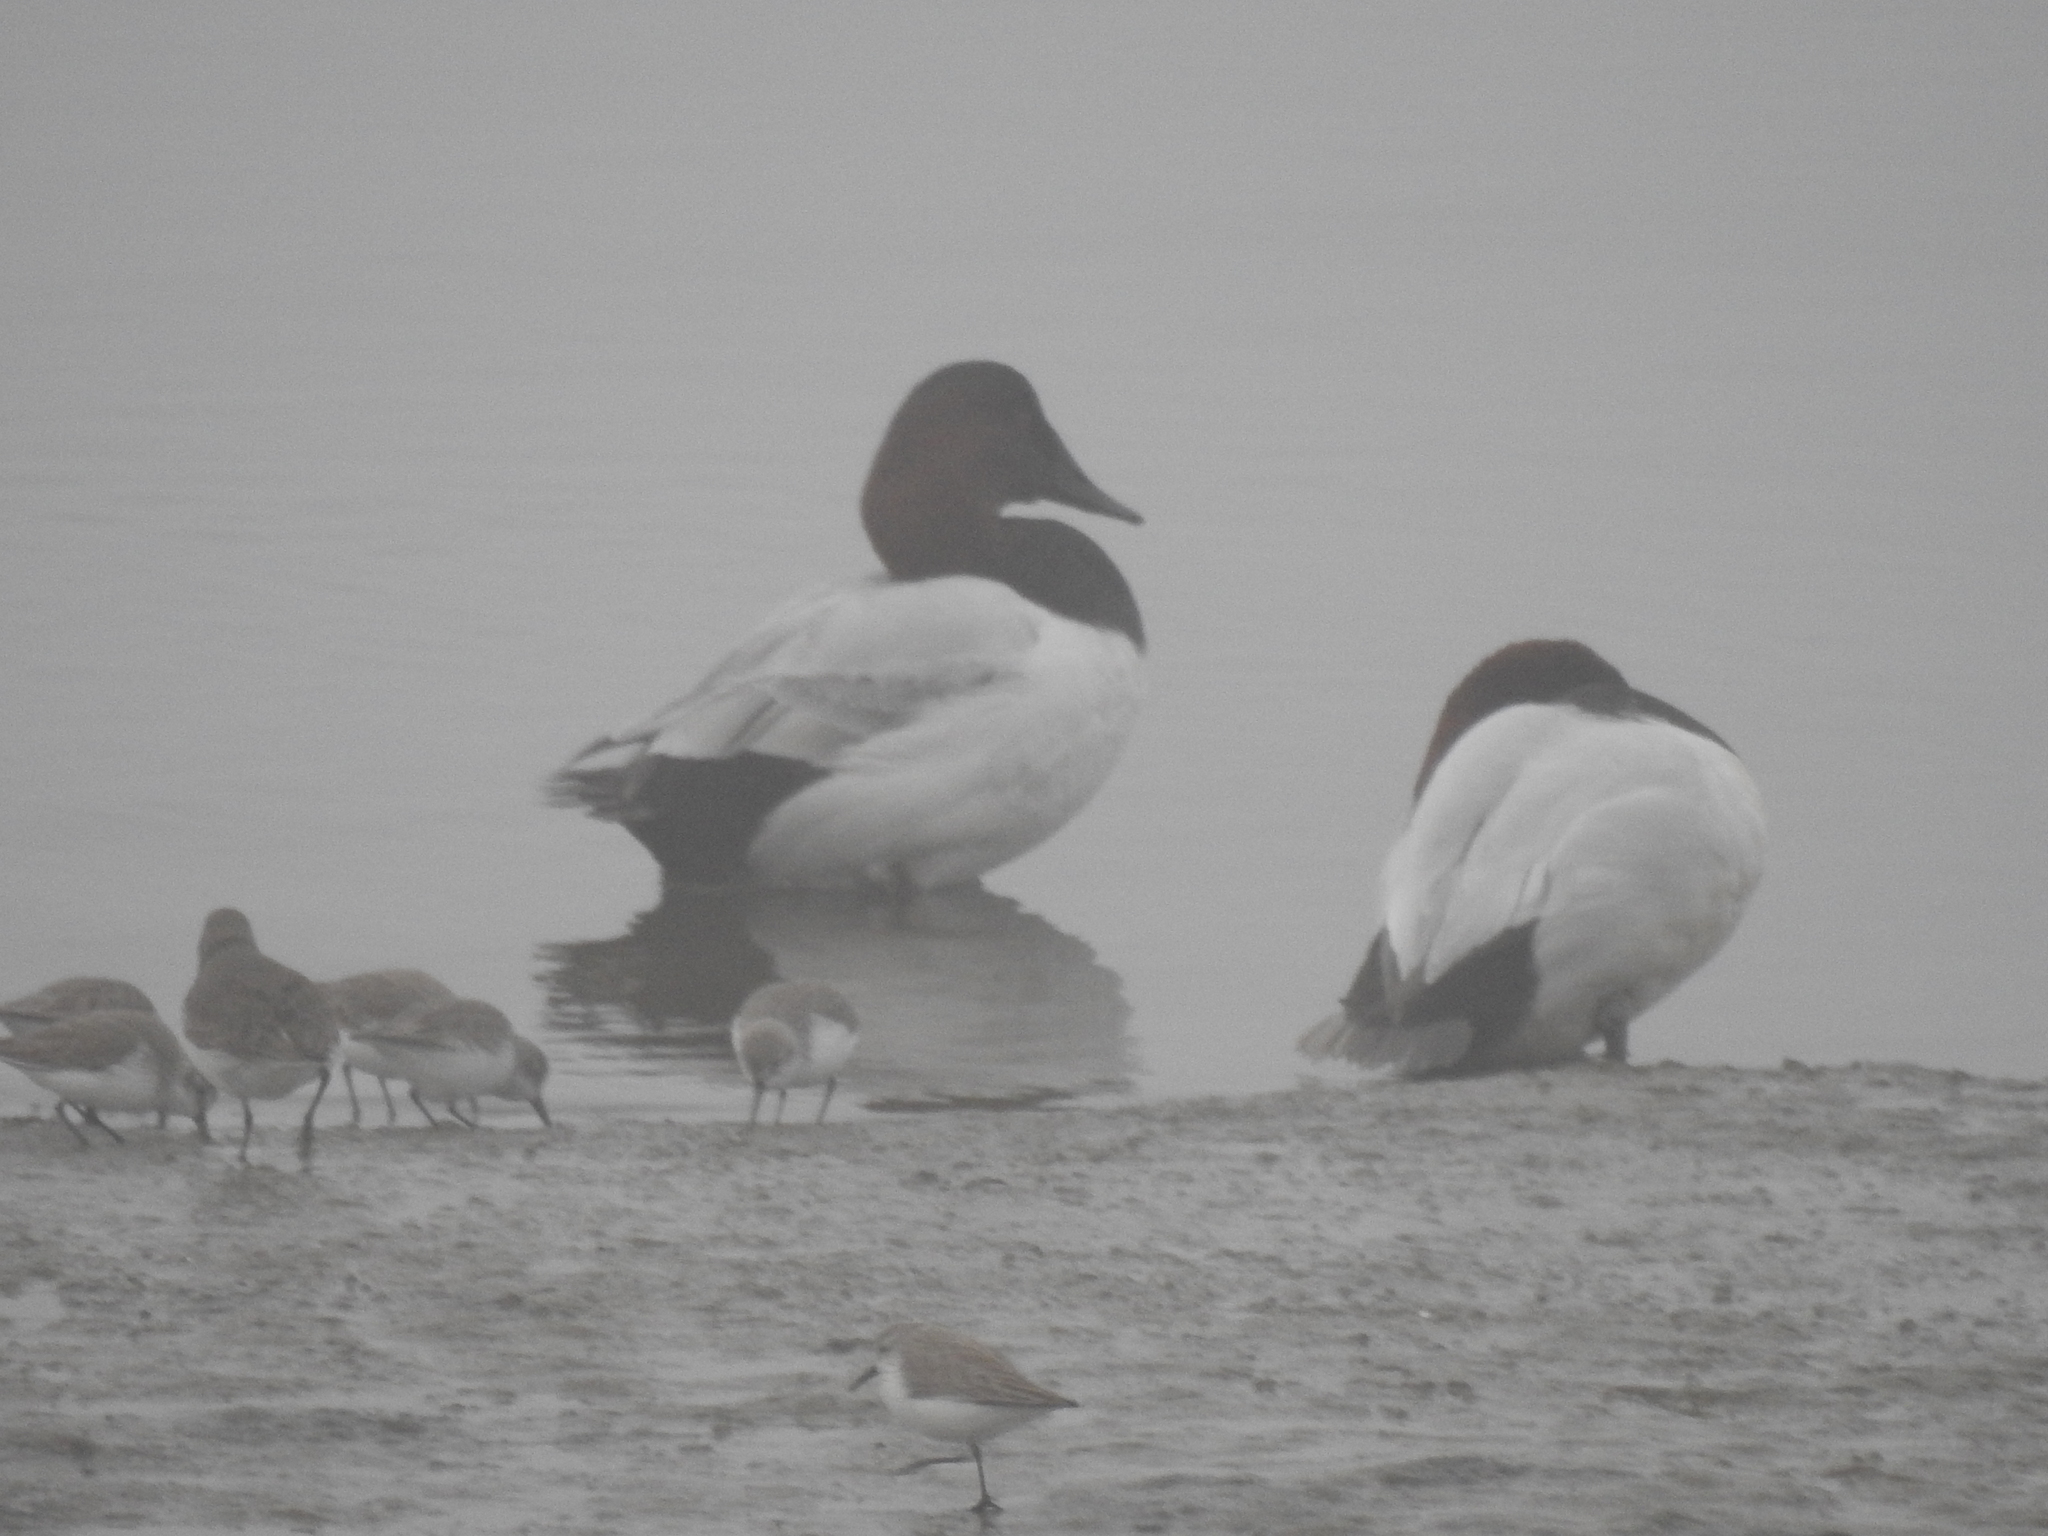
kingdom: Animalia
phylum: Chordata
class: Aves
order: Anseriformes
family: Anatidae
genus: Aythya
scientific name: Aythya valisineria
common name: Canvasback
